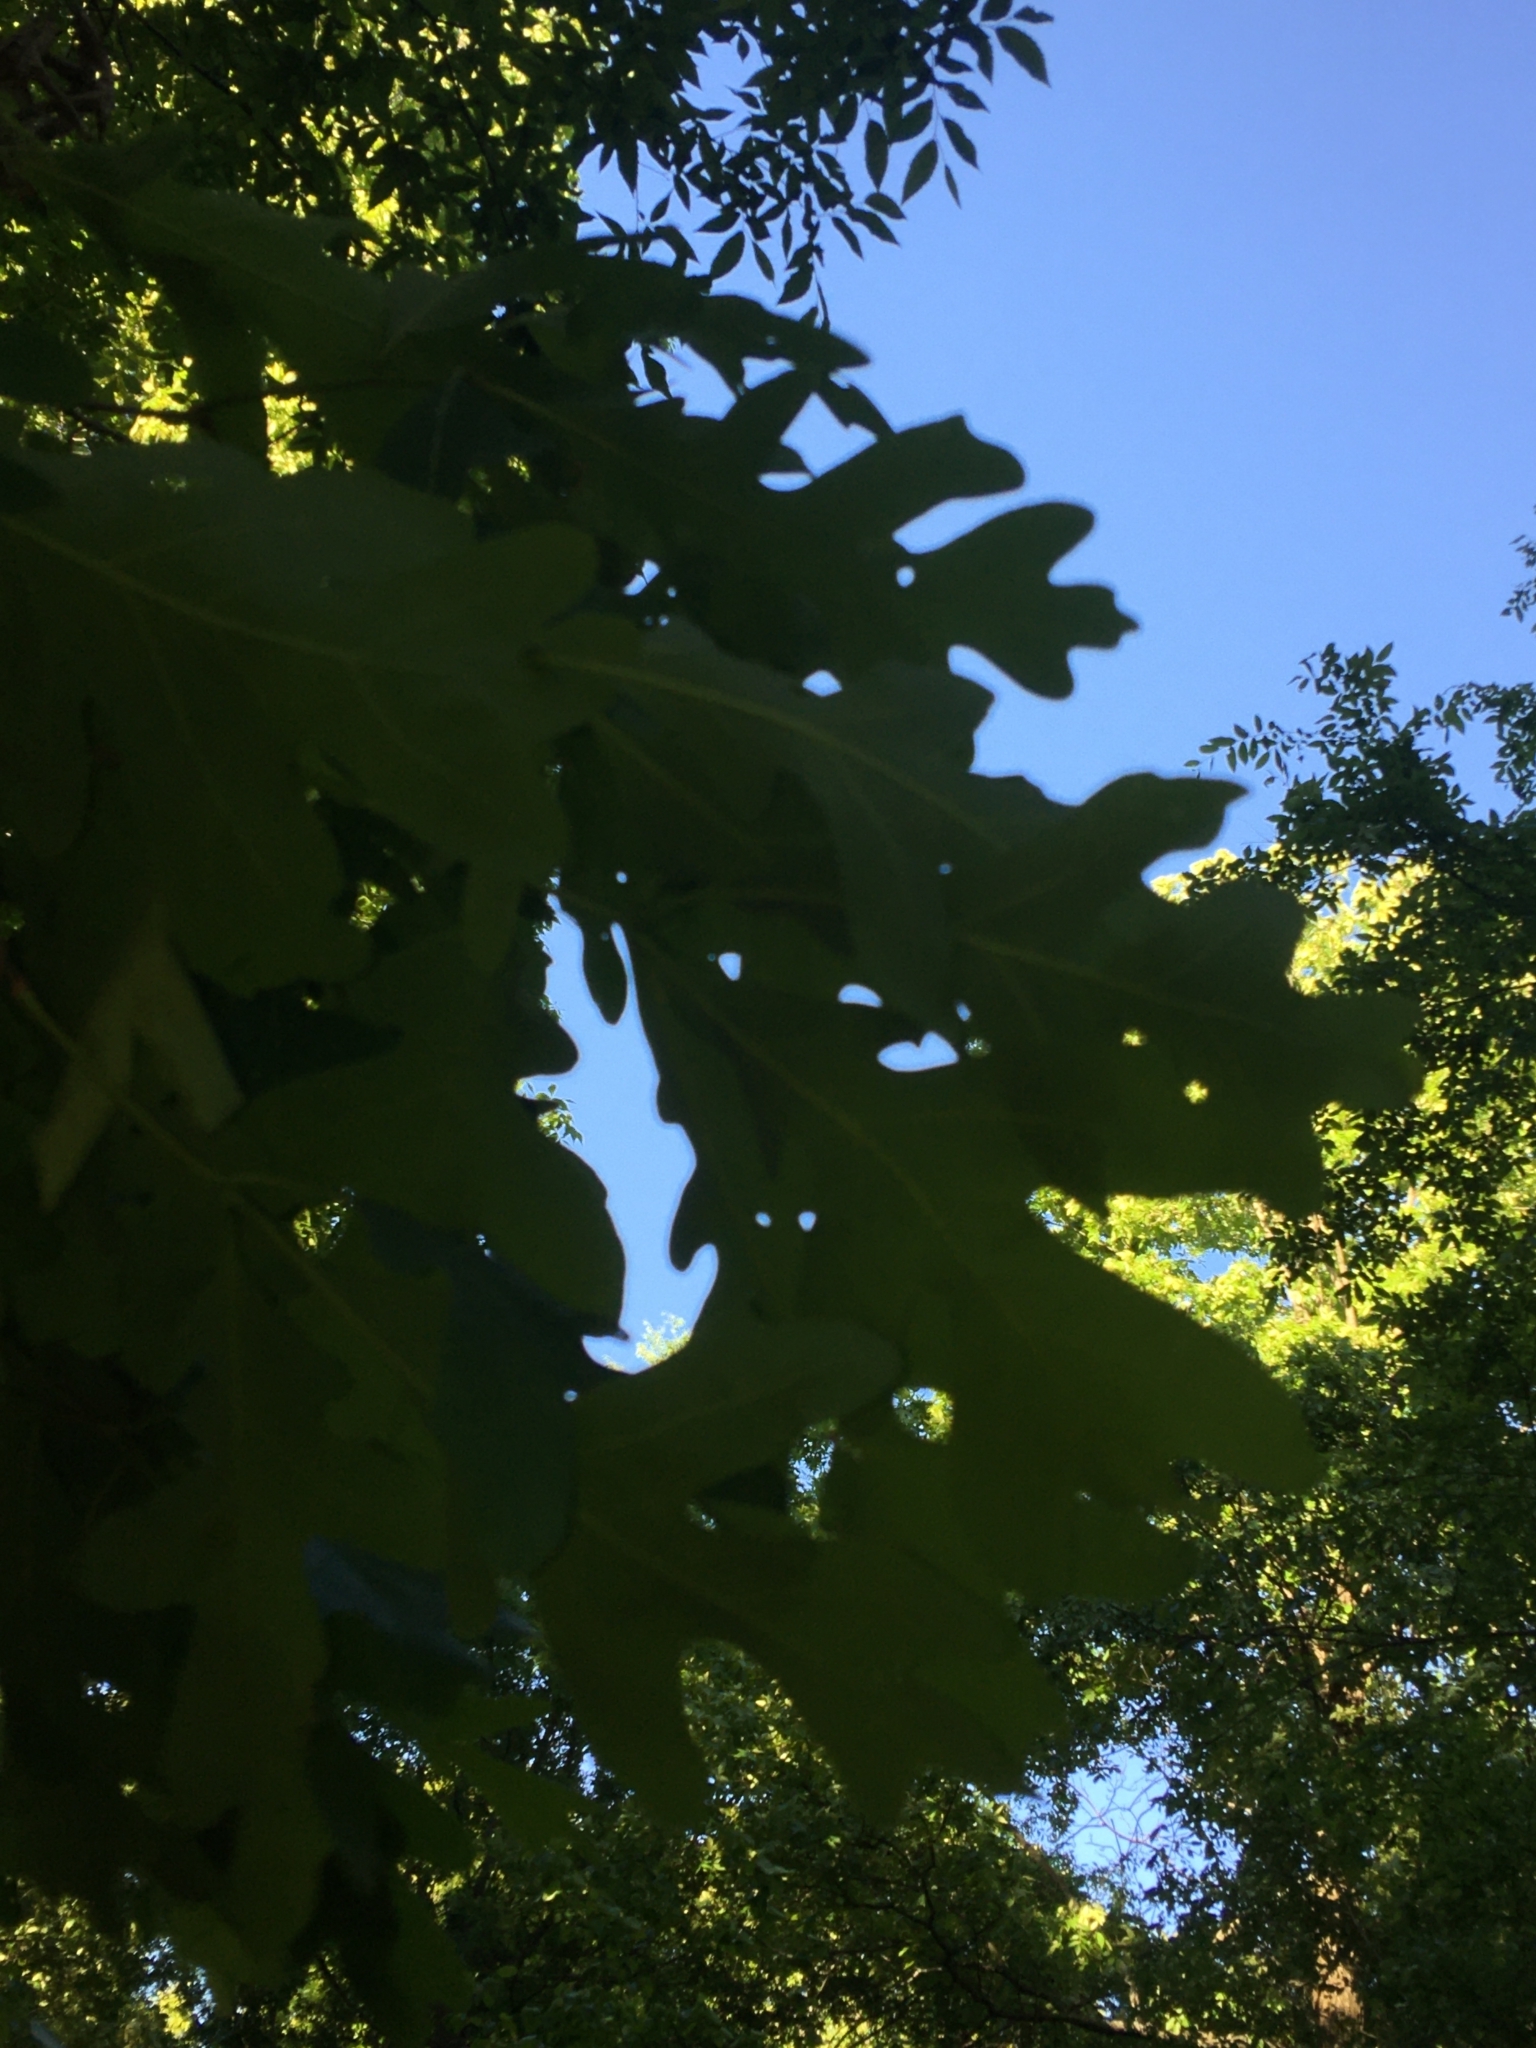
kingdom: Plantae
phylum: Tracheophyta
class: Magnoliopsida
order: Fagales
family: Fagaceae
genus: Quercus
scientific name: Quercus alba
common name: White oak
